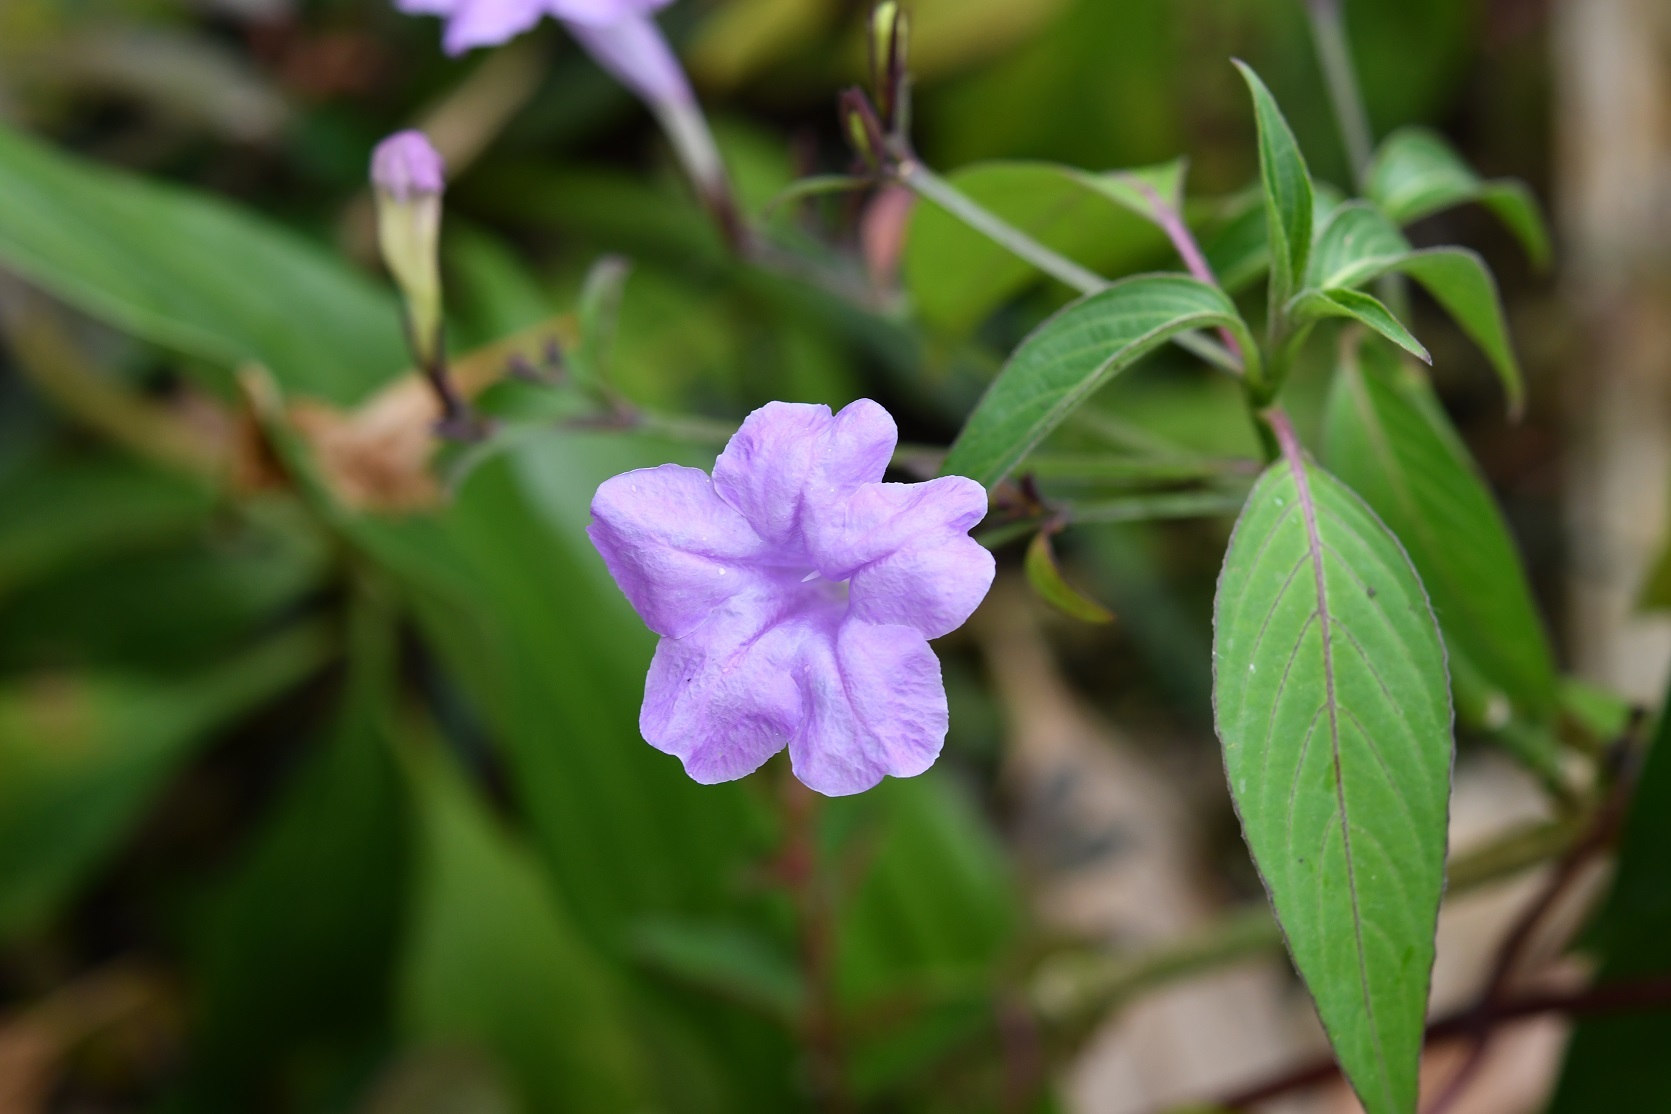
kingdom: Plantae
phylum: Tracheophyta
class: Magnoliopsida
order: Lamiales
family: Acanthaceae
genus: Ruellia
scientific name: Ruellia breedlovei
